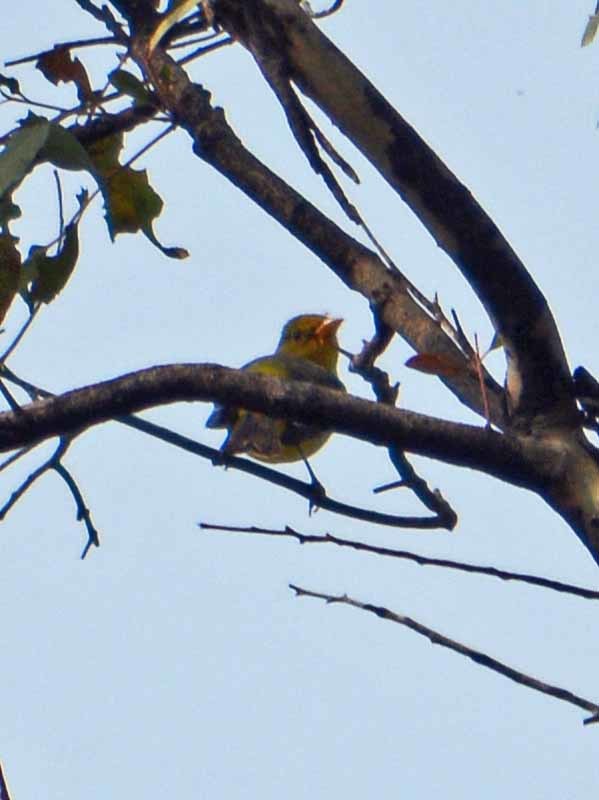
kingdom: Animalia
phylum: Chordata
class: Aves
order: Passeriformes
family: Cardinalidae
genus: Piranga
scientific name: Piranga ludoviciana
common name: Western tanager
